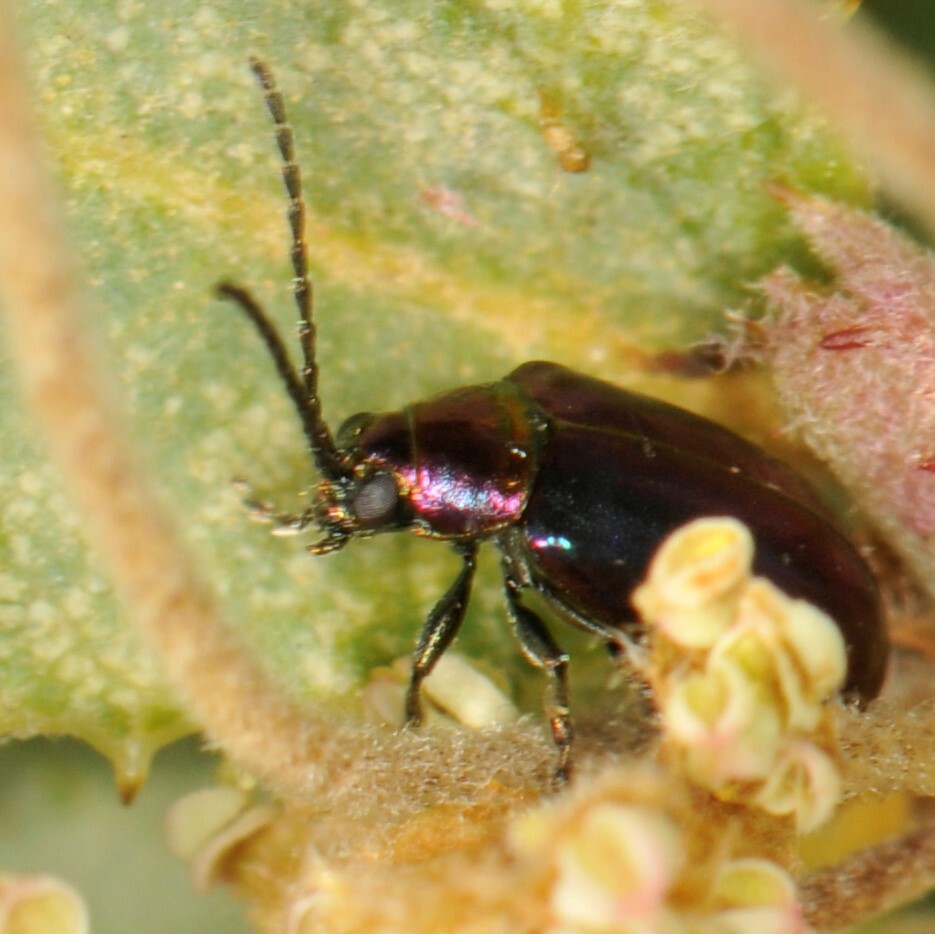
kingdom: Animalia
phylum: Arthropoda
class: Insecta
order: Coleoptera
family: Chrysomelidae
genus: Altica
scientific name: Altica torquata
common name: Leaf beetle
